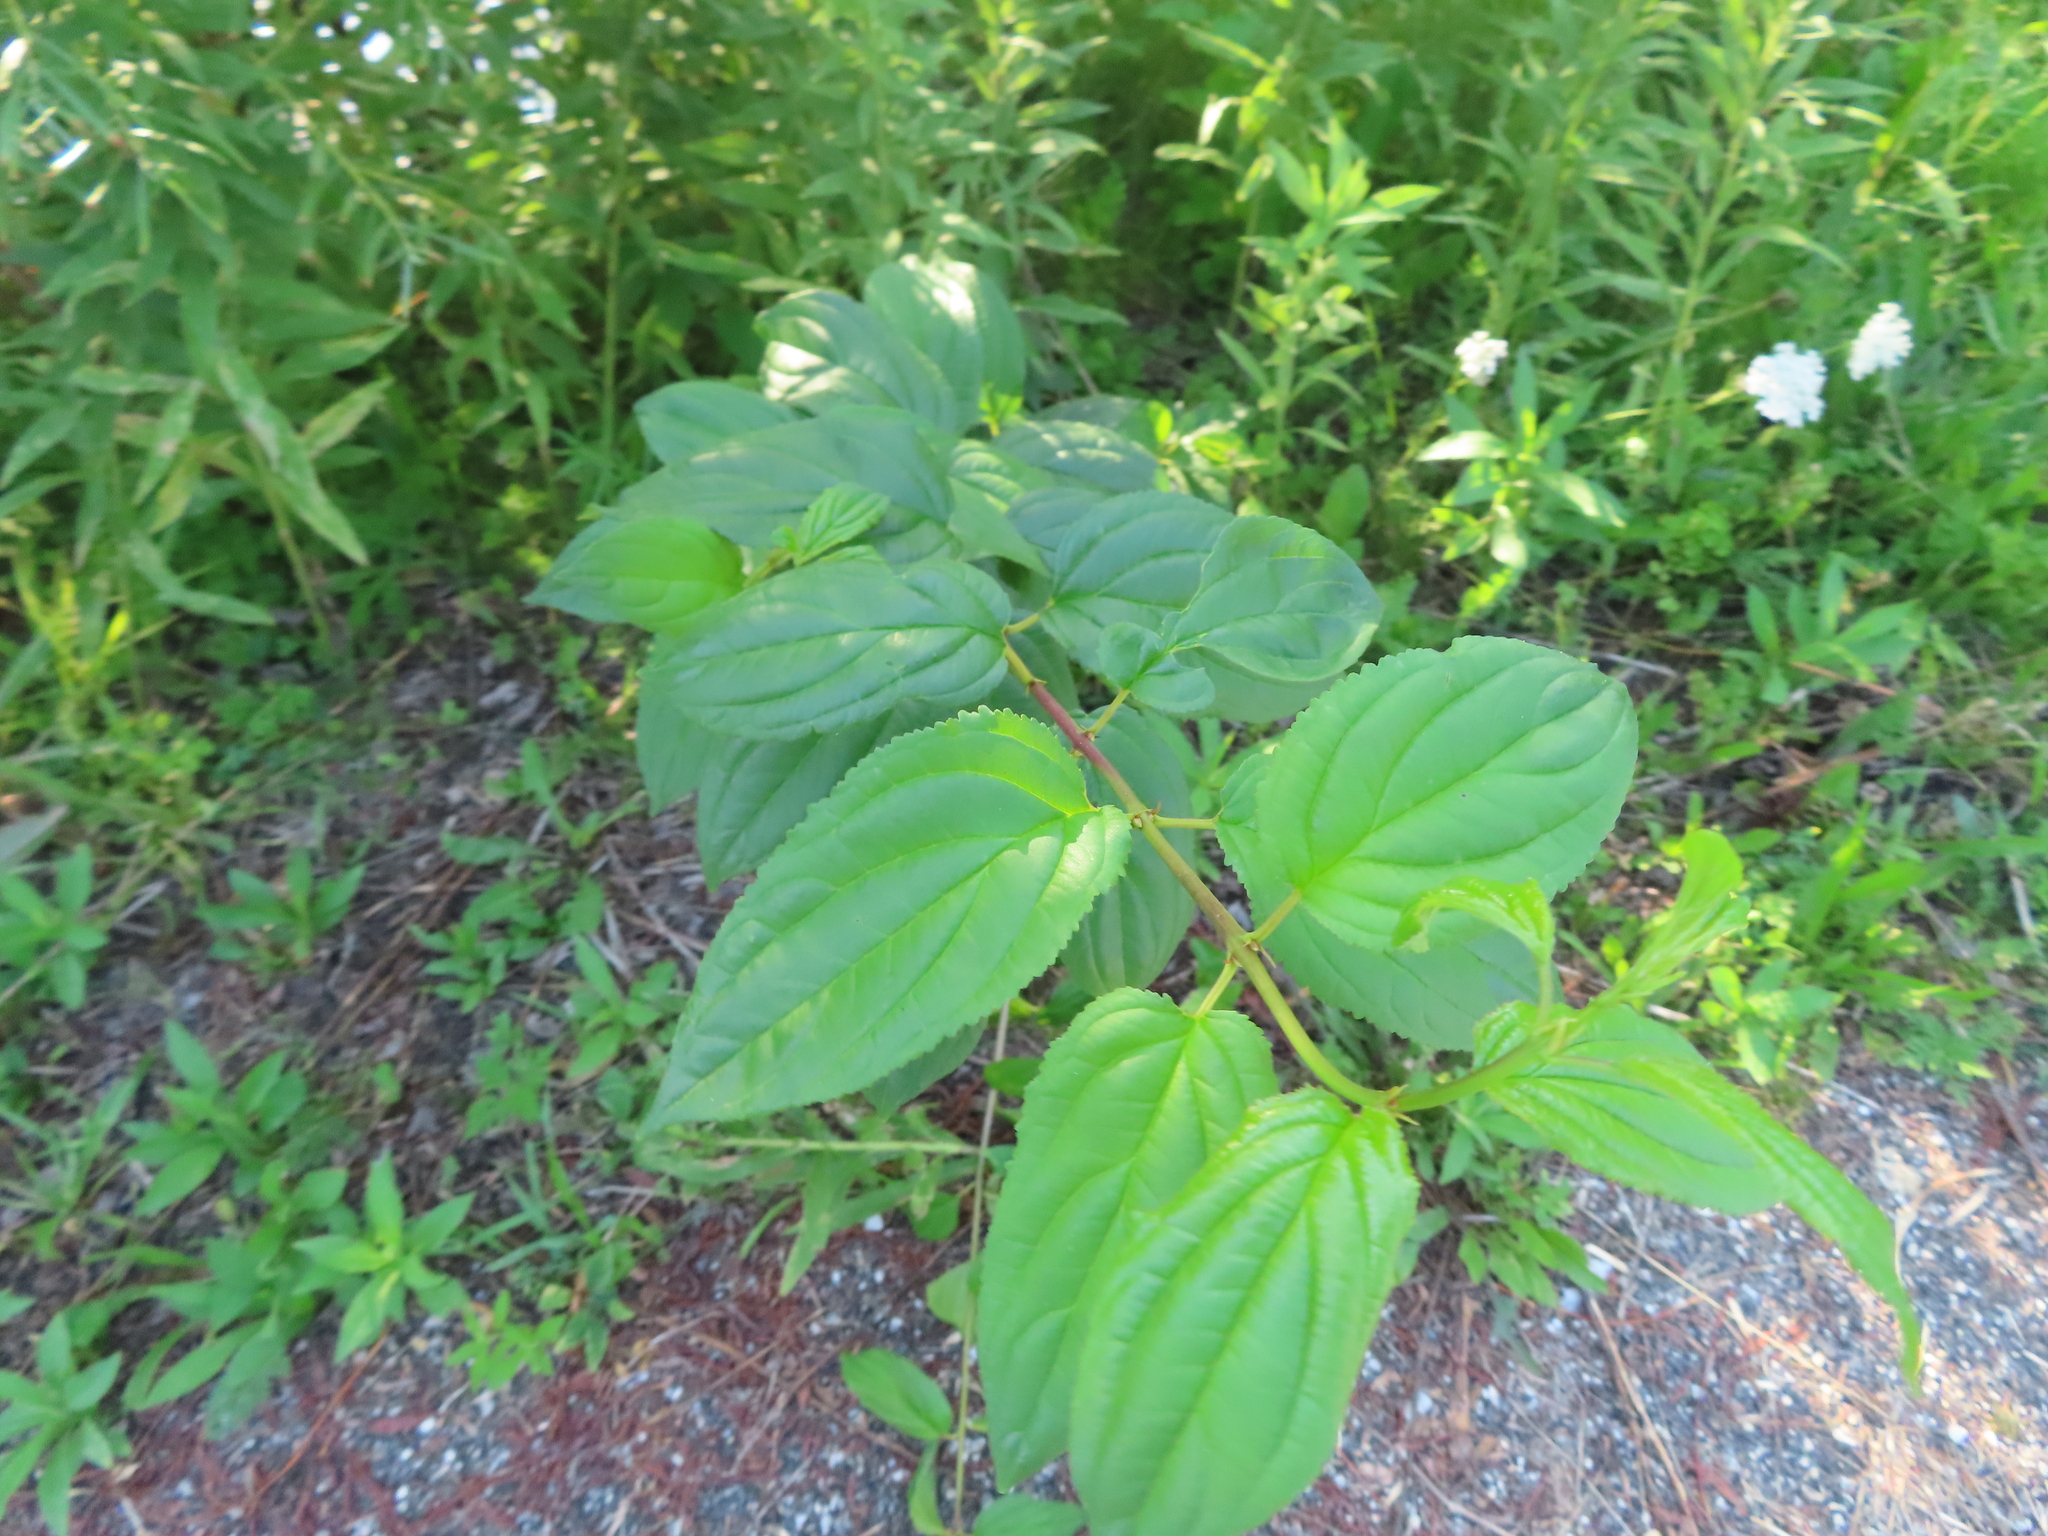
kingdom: Plantae
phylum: Tracheophyta
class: Magnoliopsida
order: Rosales
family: Rhamnaceae
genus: Rhamnus
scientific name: Rhamnus cathartica
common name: Common buckthorn
